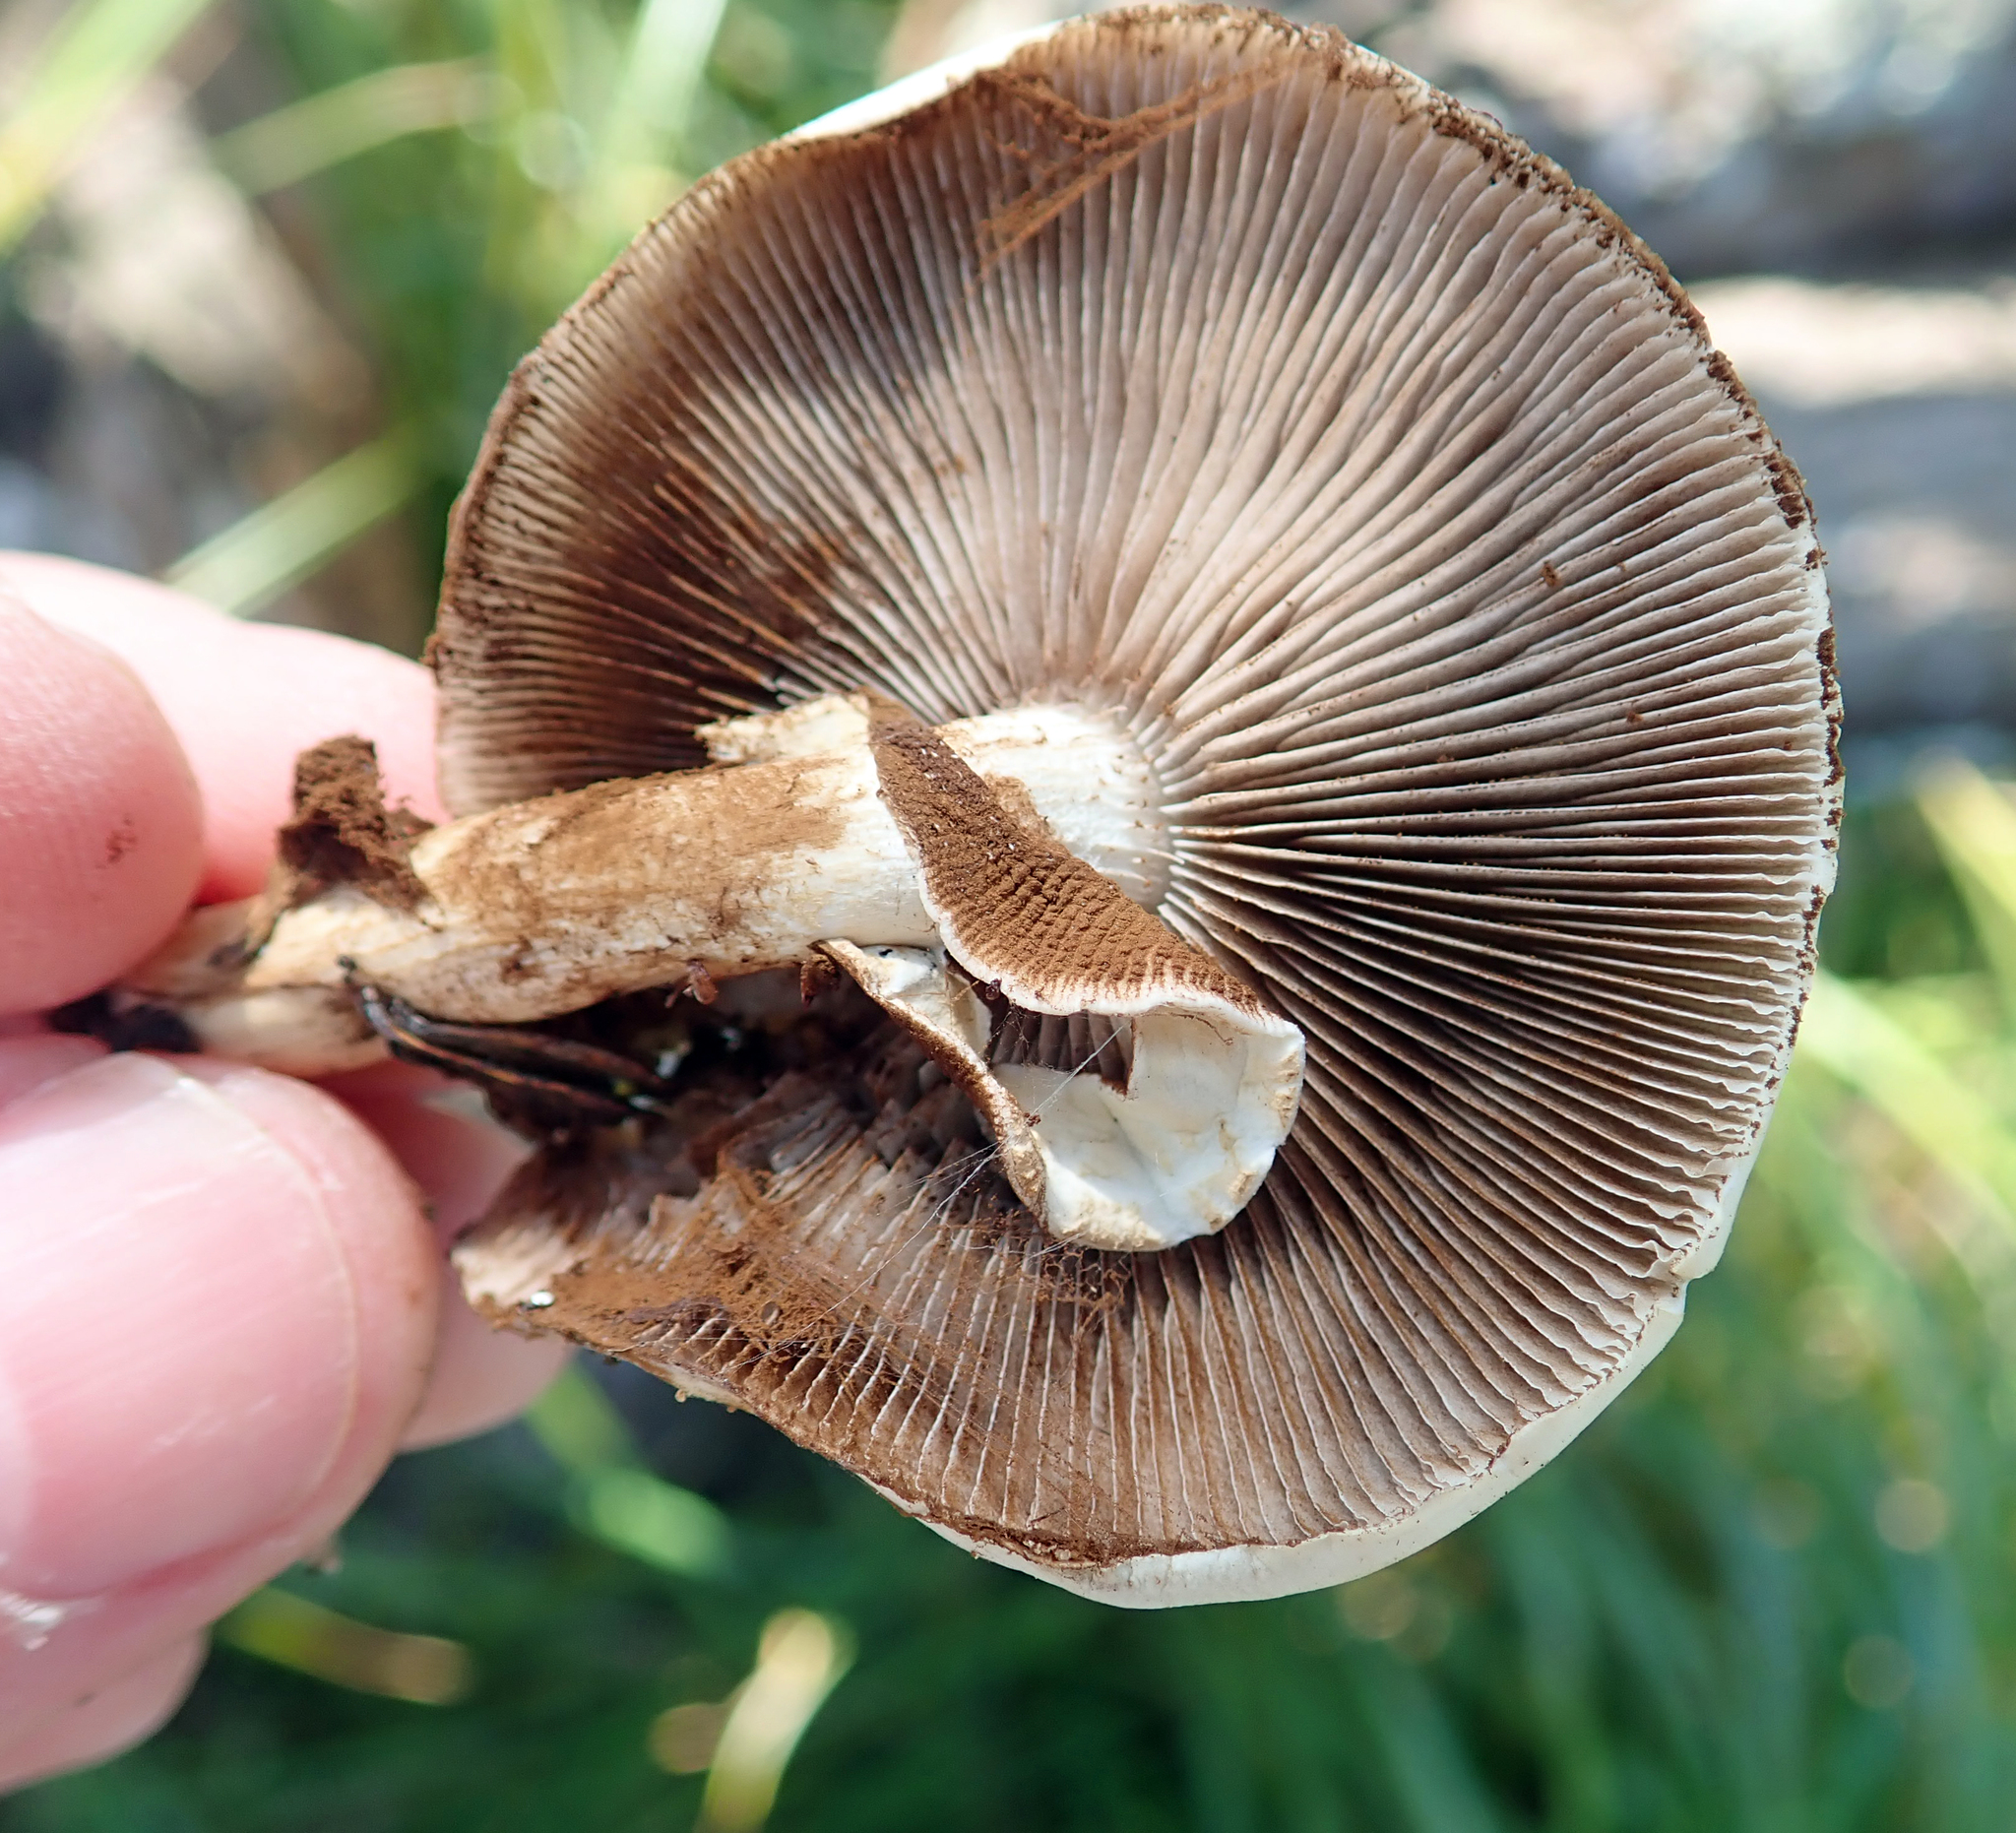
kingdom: Fungi
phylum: Basidiomycota
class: Agaricomycetes
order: Agaricales
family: Tubariaceae
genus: Cyclocybe
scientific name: Cyclocybe parasitica
